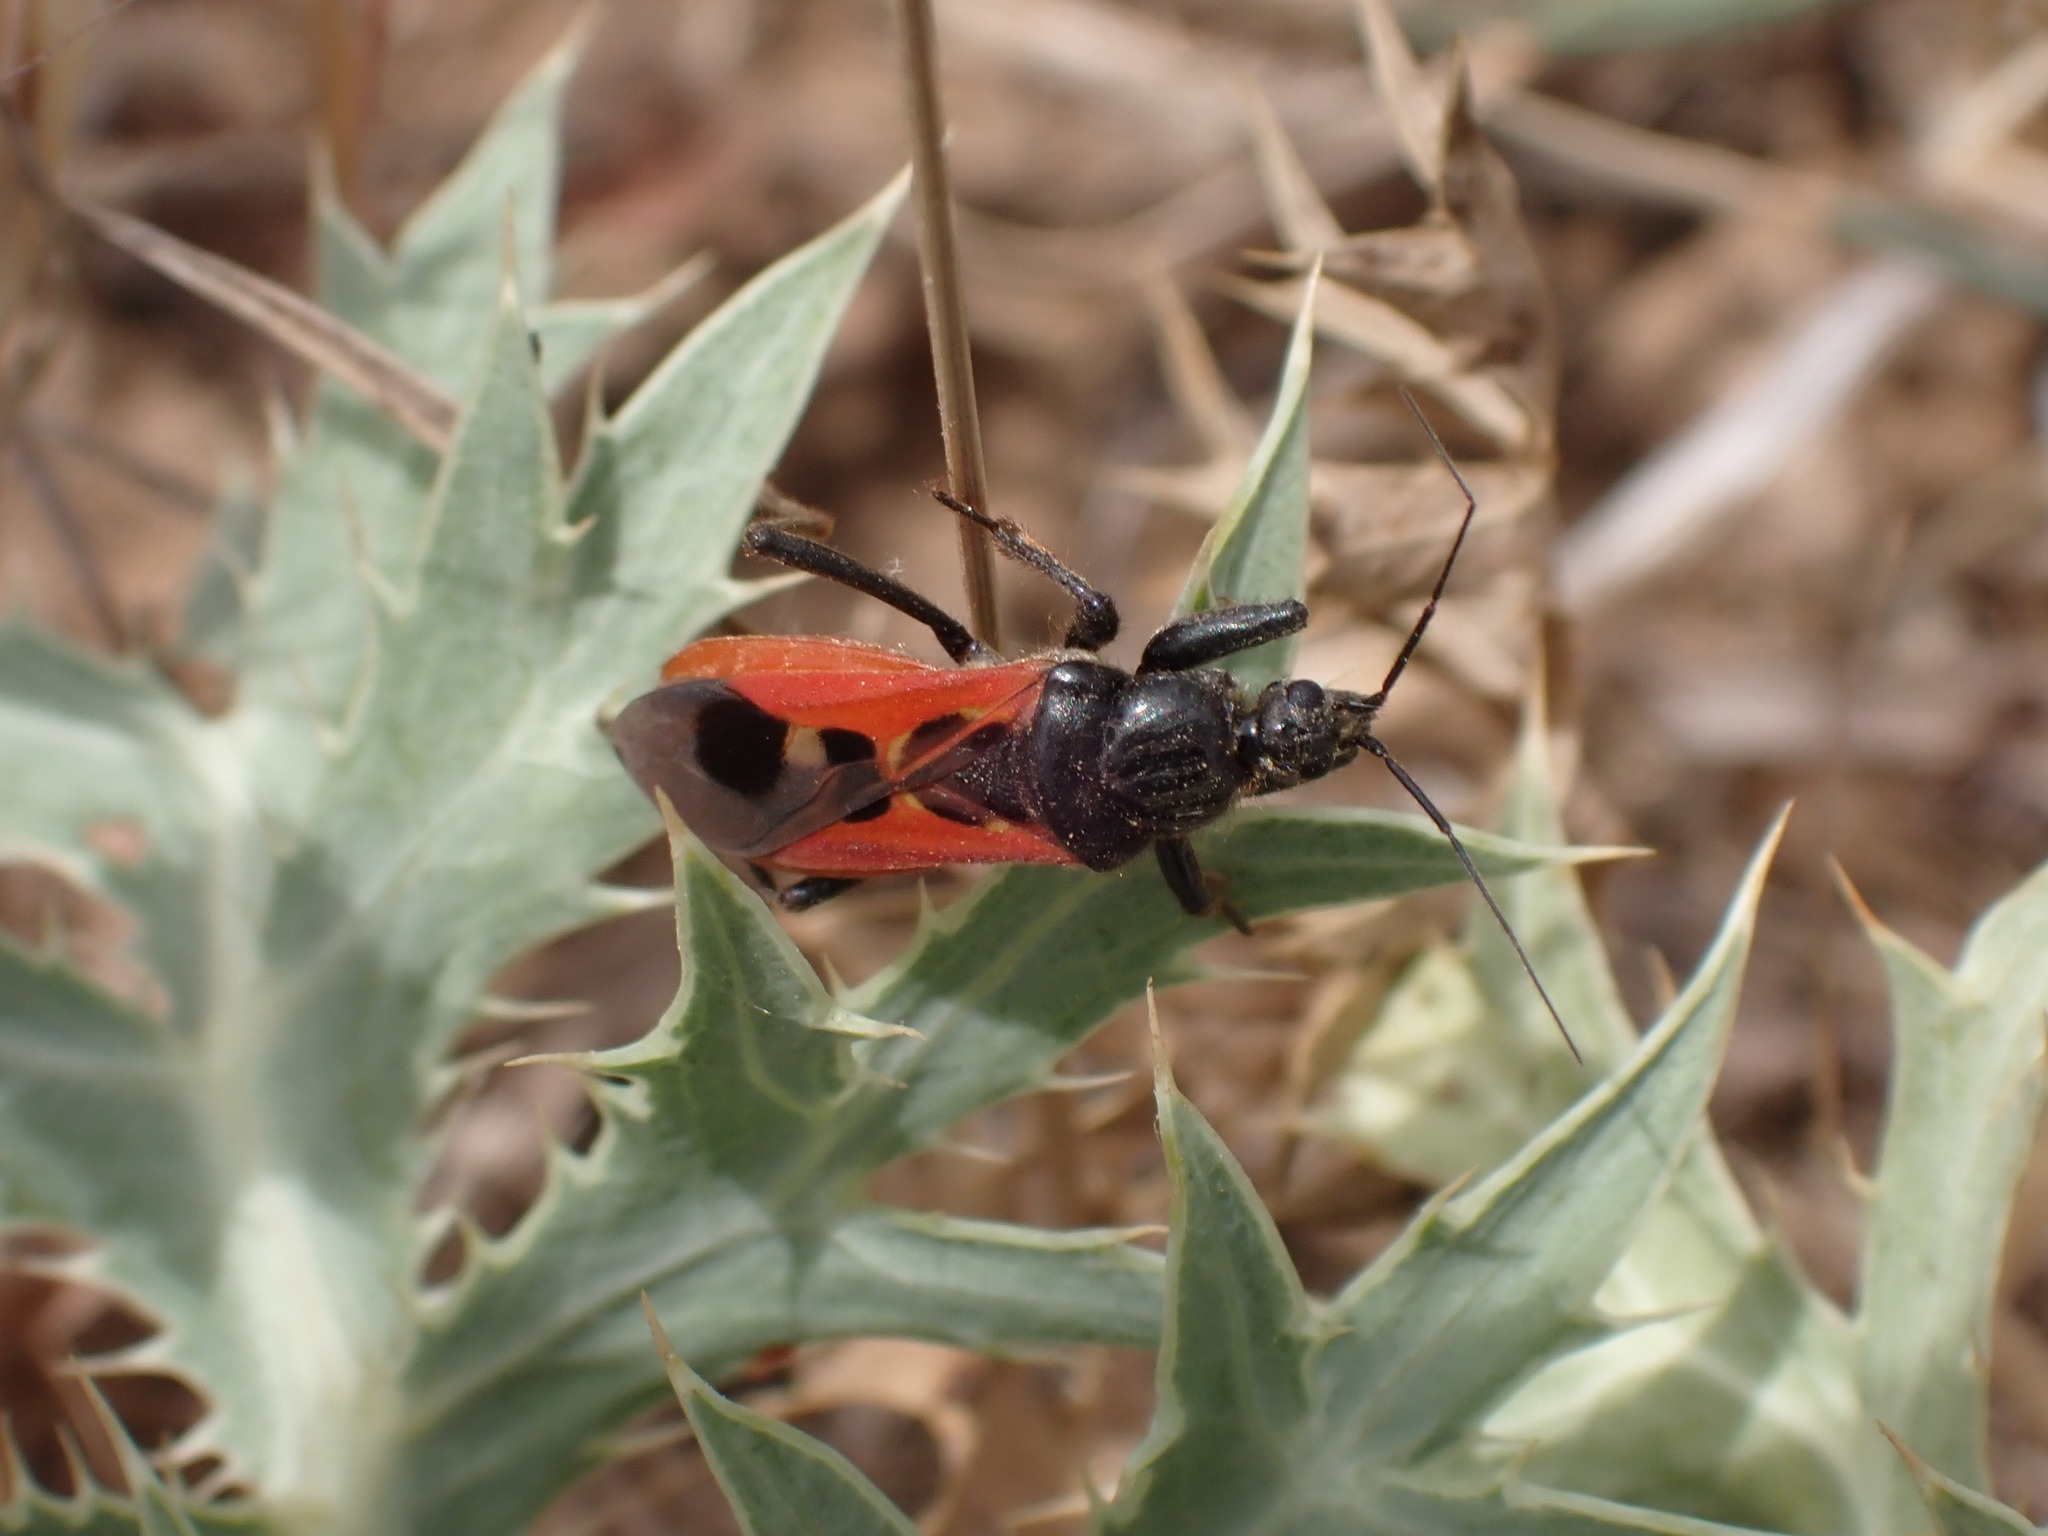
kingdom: Animalia
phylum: Arthropoda
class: Insecta
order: Hemiptera
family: Reduviidae
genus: Peirates
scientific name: Peirates hybridus
